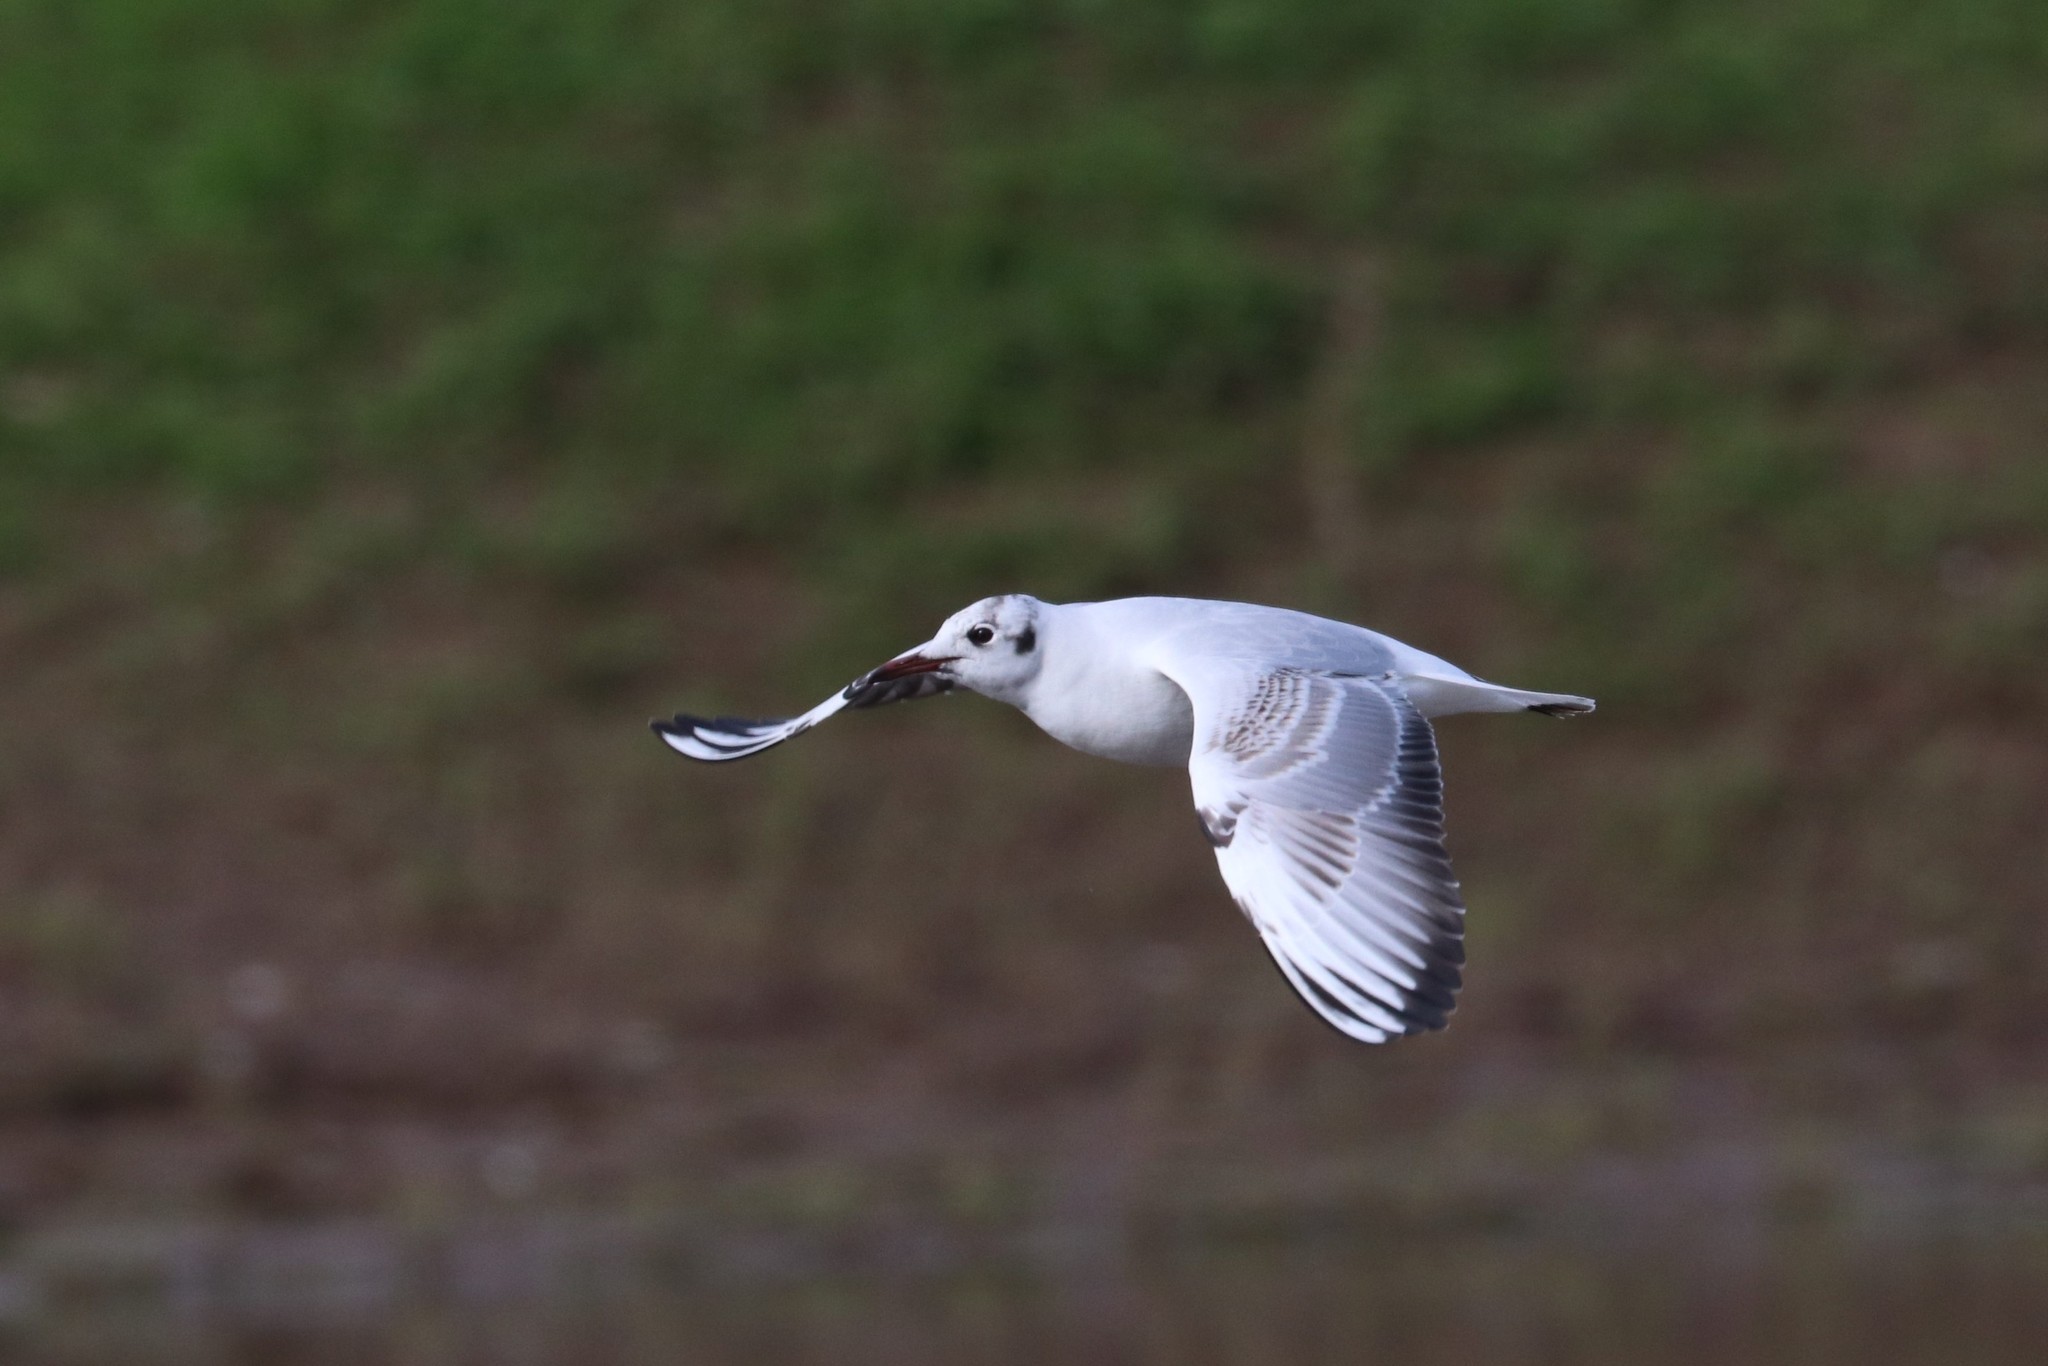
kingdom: Animalia
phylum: Chordata
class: Aves
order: Charadriiformes
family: Laridae
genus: Chroicocephalus
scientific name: Chroicocephalus ridibundus
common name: Black-headed gull
